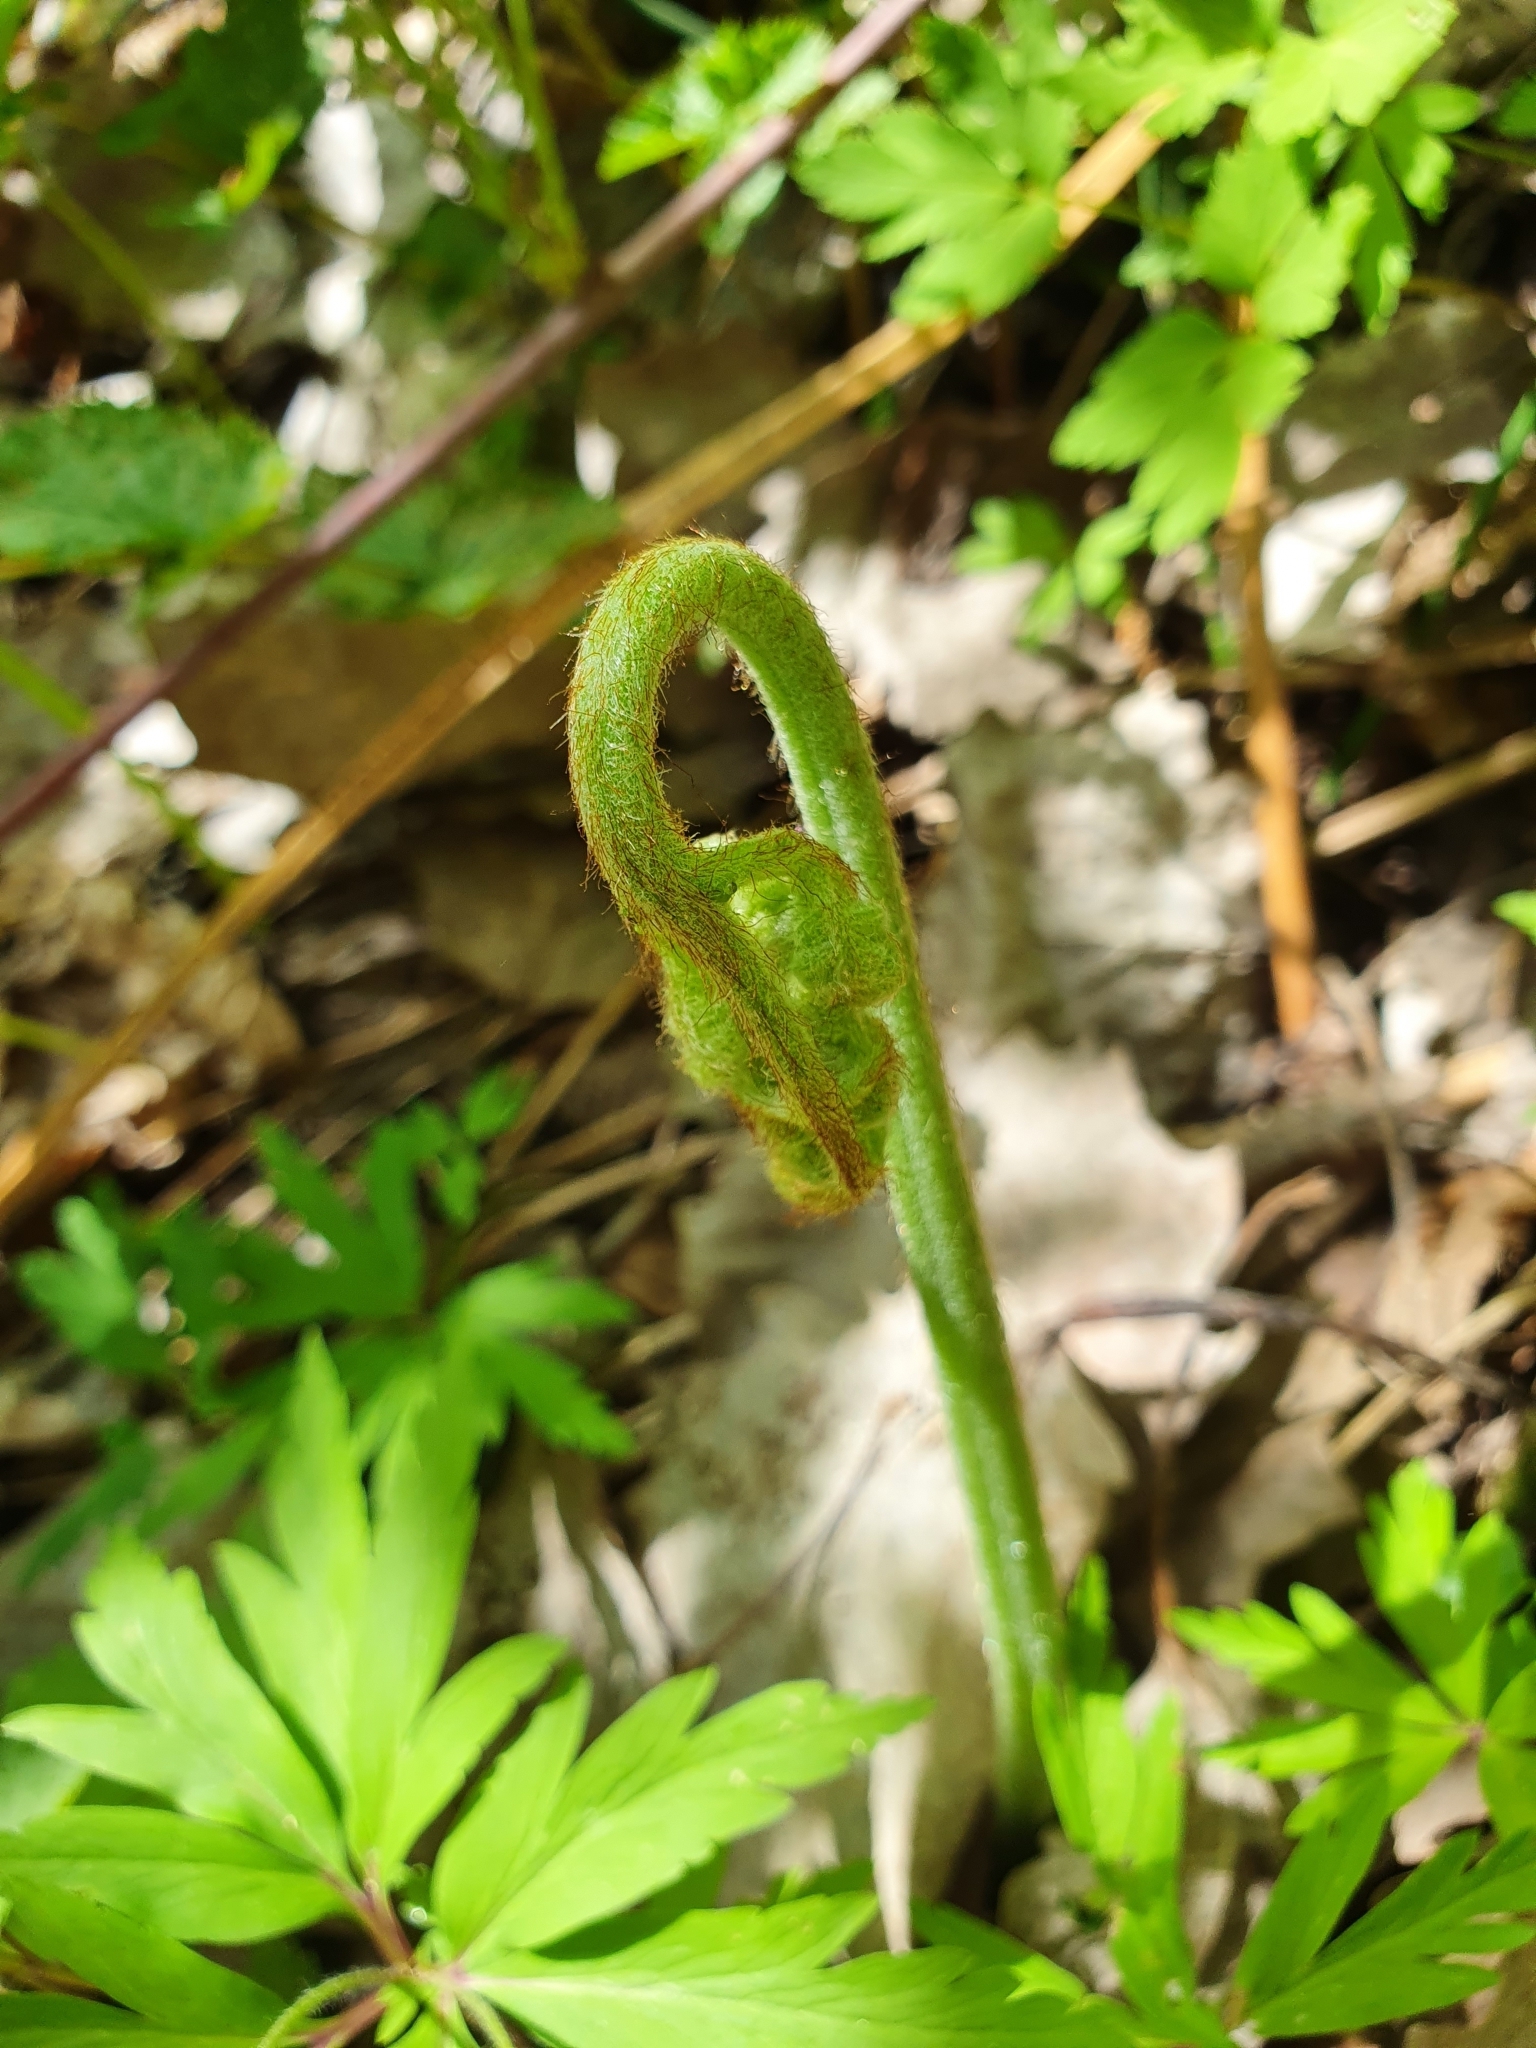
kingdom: Plantae
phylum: Tracheophyta
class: Polypodiopsida
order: Polypodiales
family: Dennstaedtiaceae
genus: Pteridium
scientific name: Pteridium aquilinum
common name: Bracken
